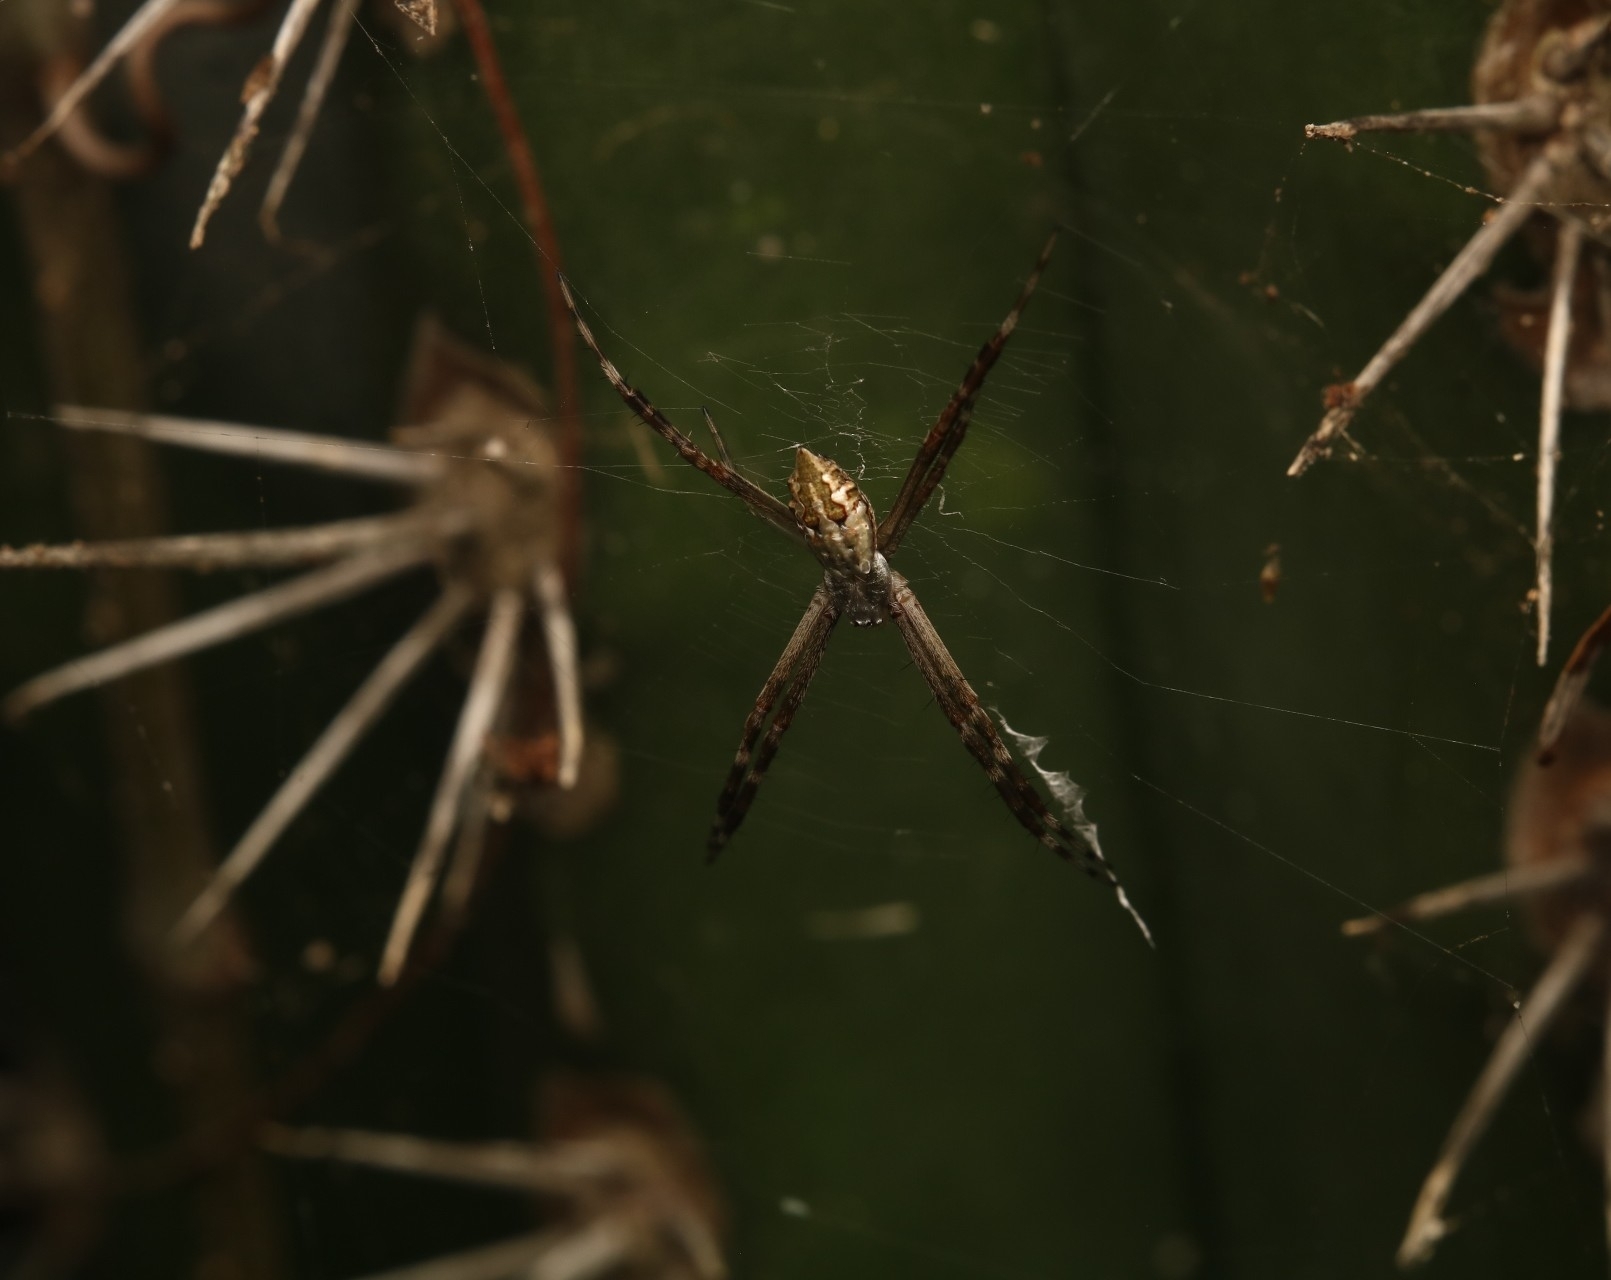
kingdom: Animalia
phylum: Arthropoda
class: Arachnida
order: Araneae
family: Araneidae
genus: Argiope
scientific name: Argiope argentata
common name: Orb weavers
